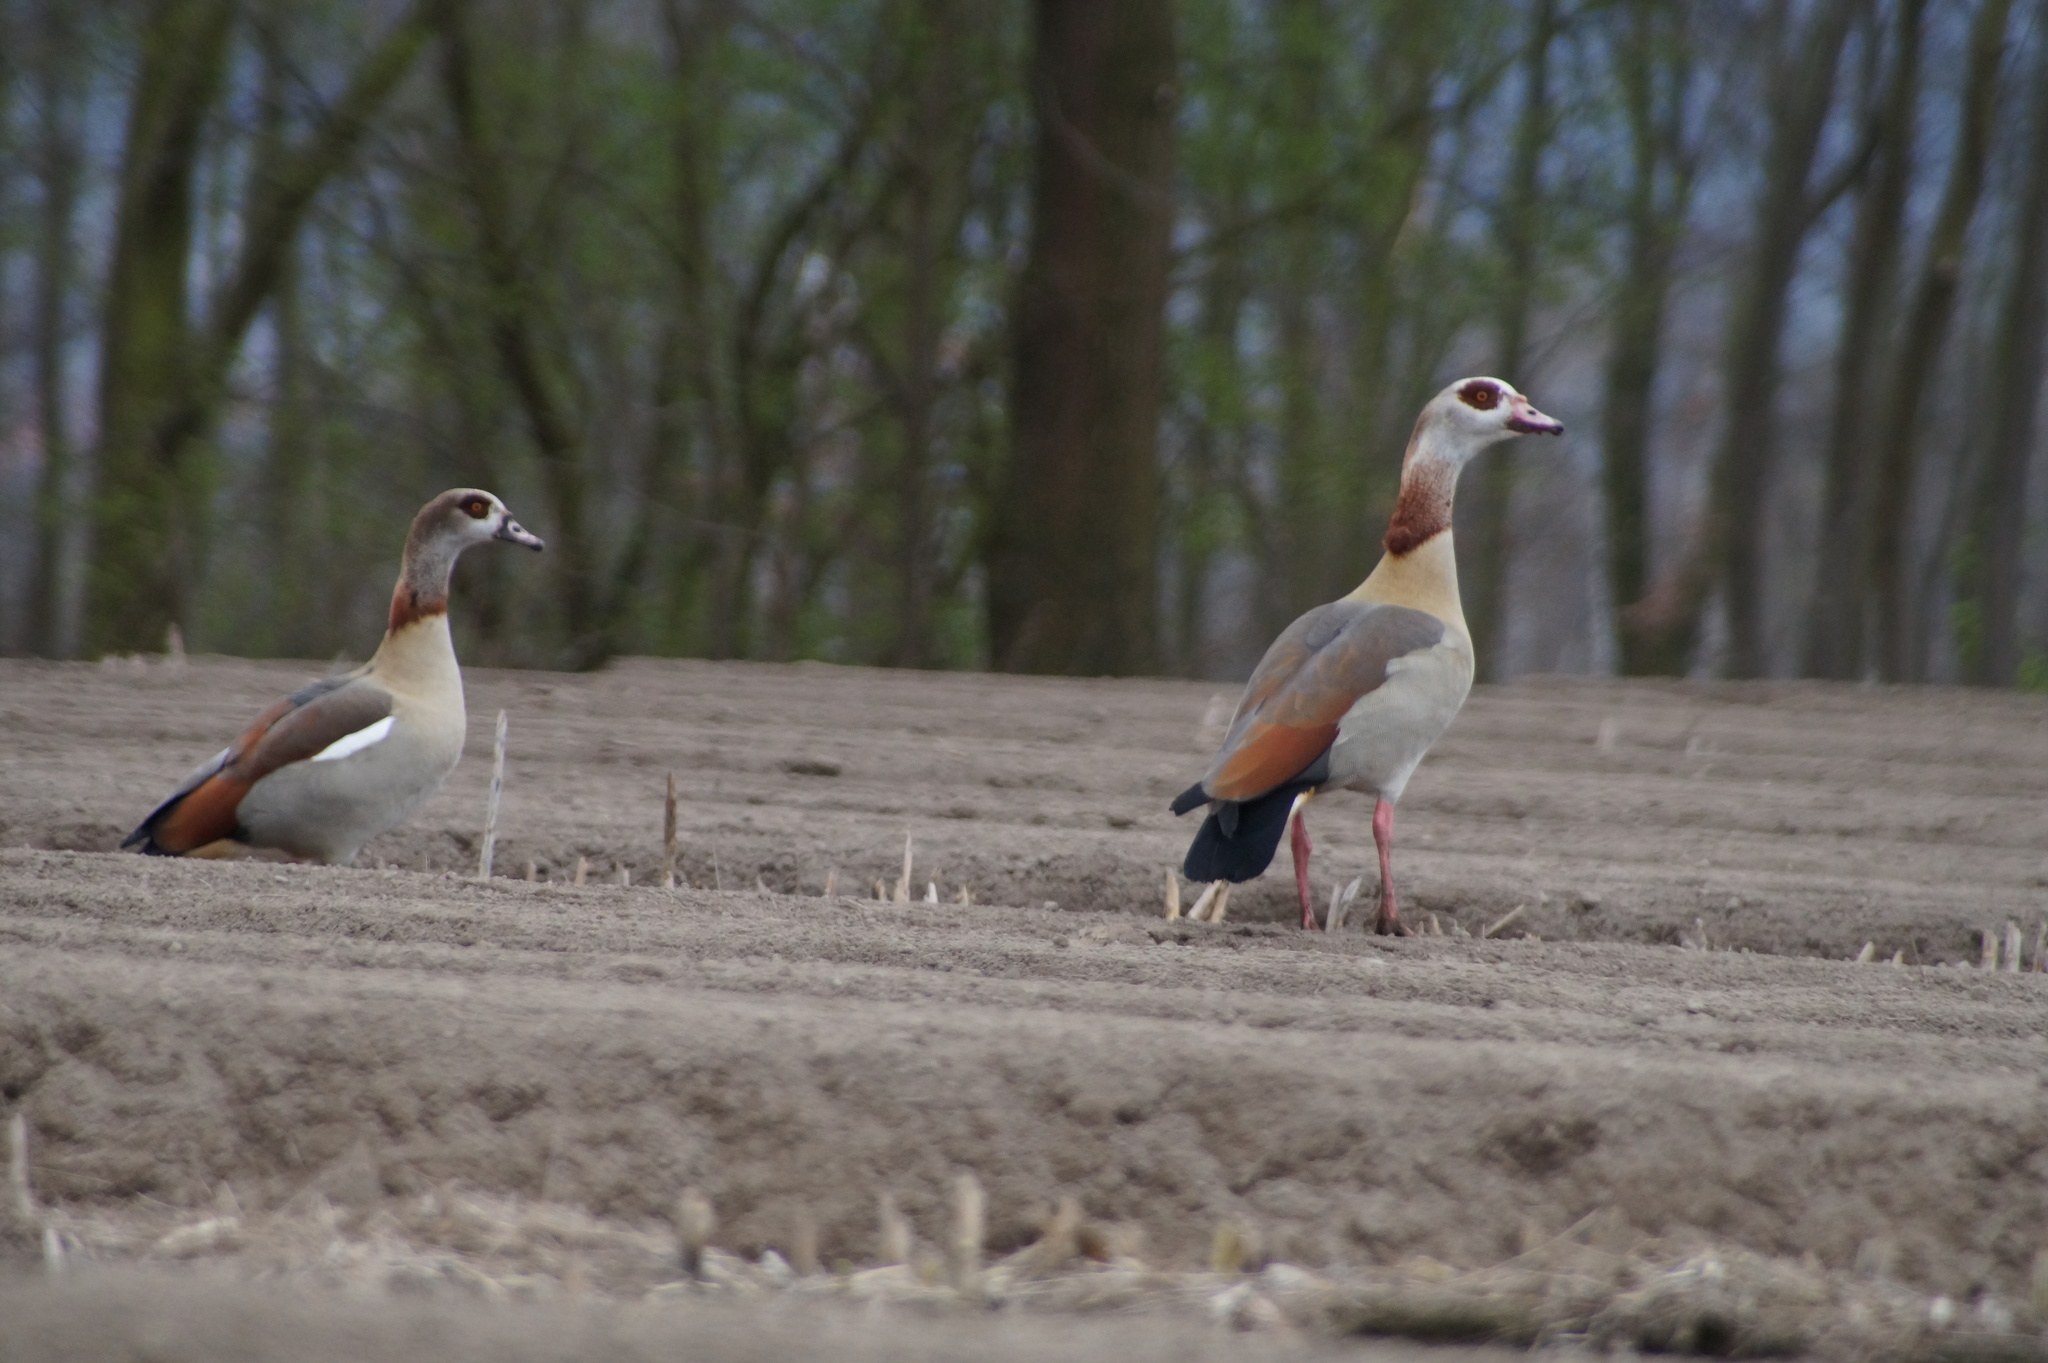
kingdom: Animalia
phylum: Chordata
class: Aves
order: Anseriformes
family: Anatidae
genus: Alopochen
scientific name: Alopochen aegyptiaca
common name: Egyptian goose
